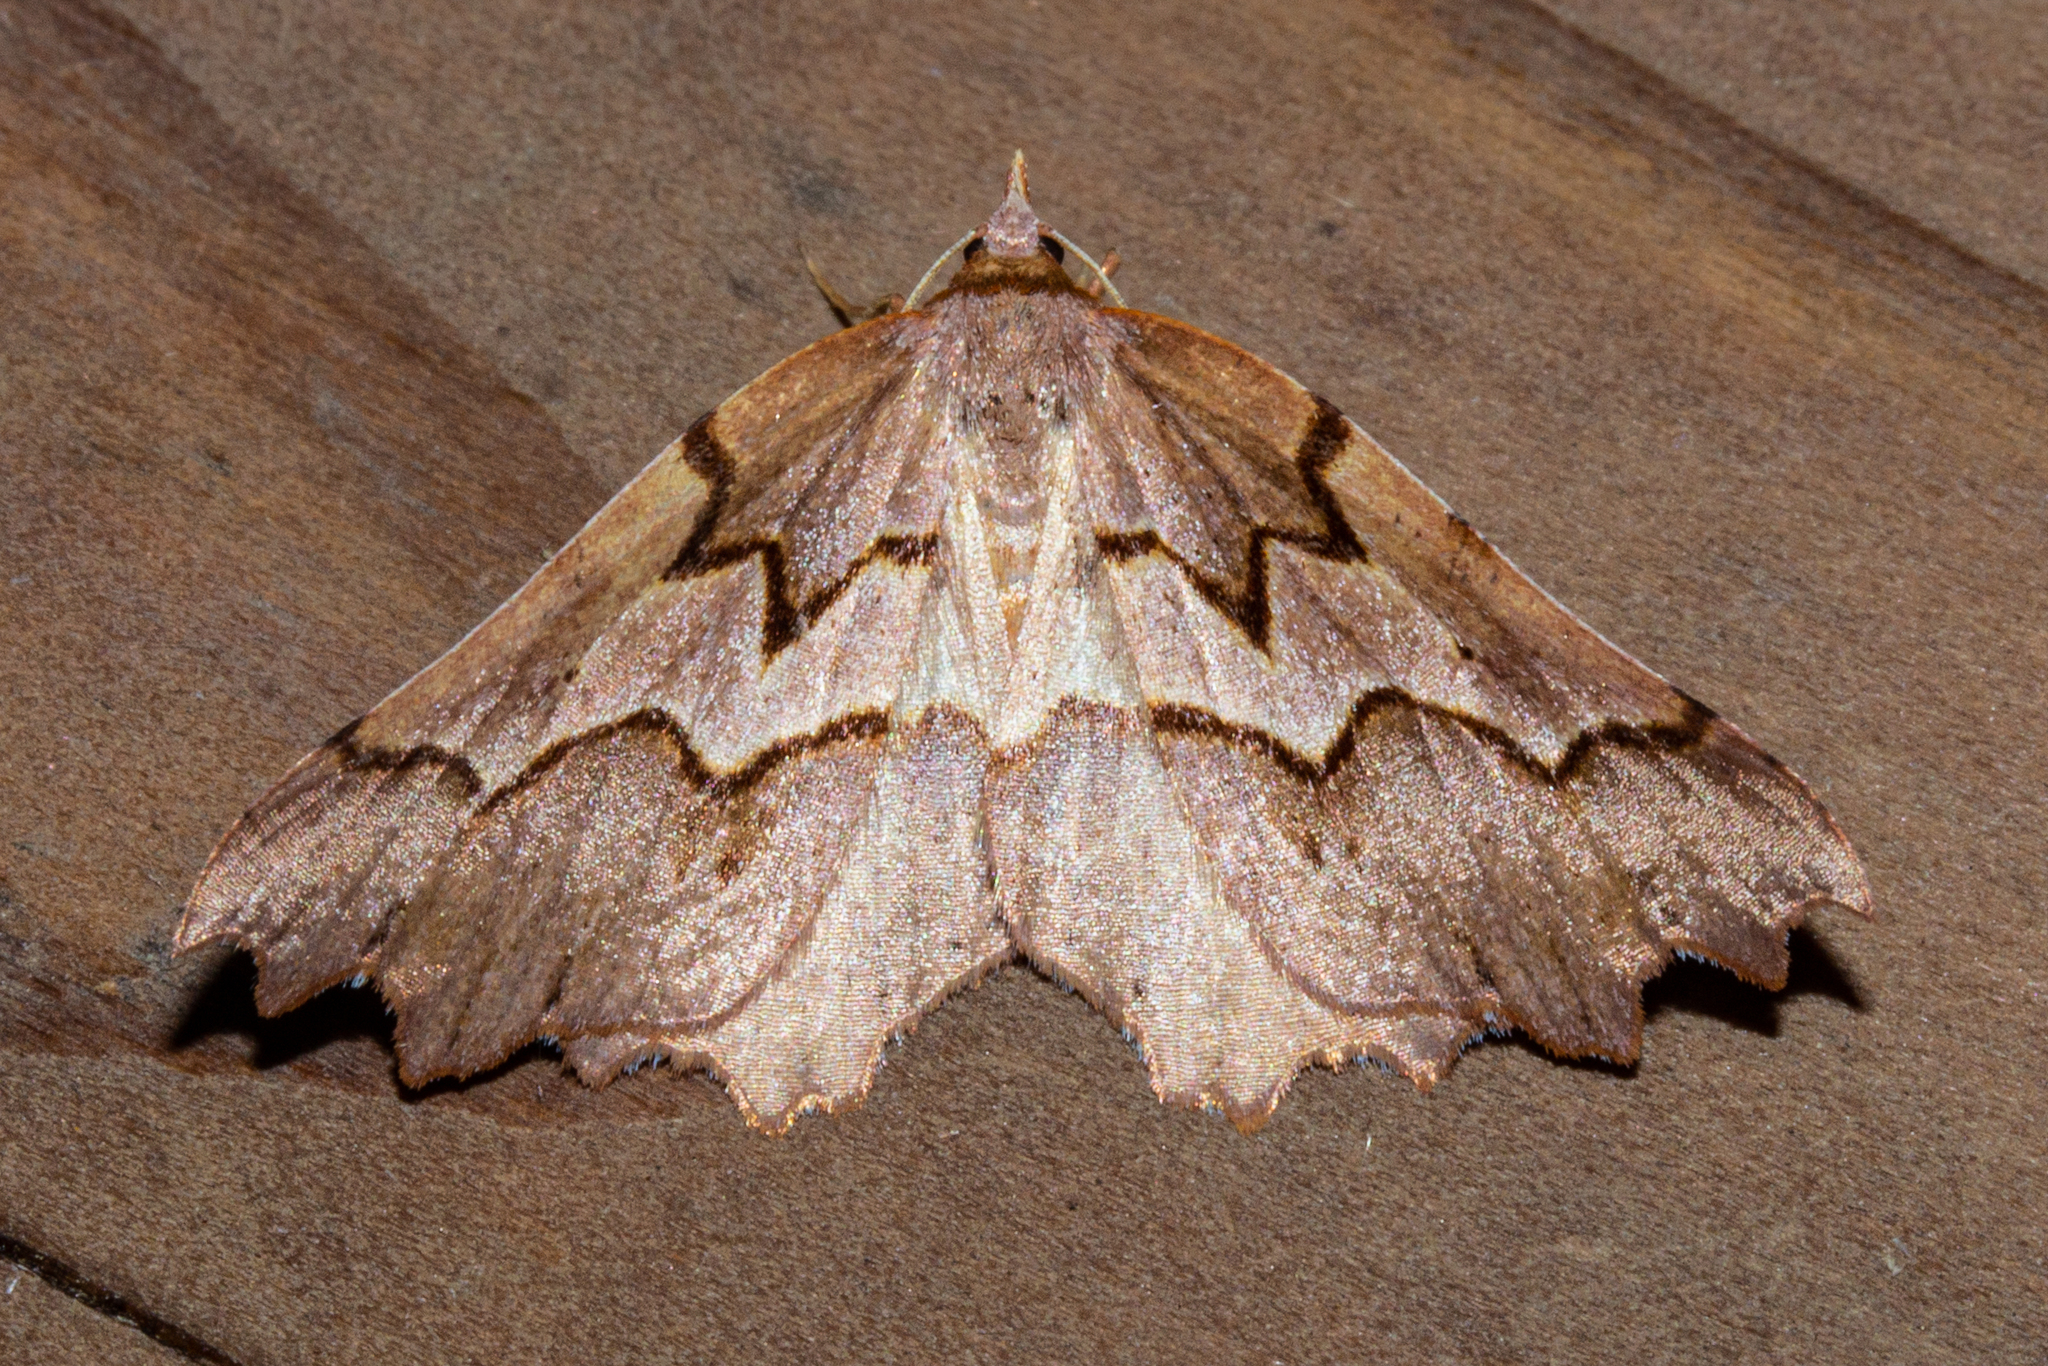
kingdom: Animalia
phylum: Arthropoda
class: Insecta
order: Lepidoptera
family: Geometridae
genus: Ischalis
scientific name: Ischalis fortinata
